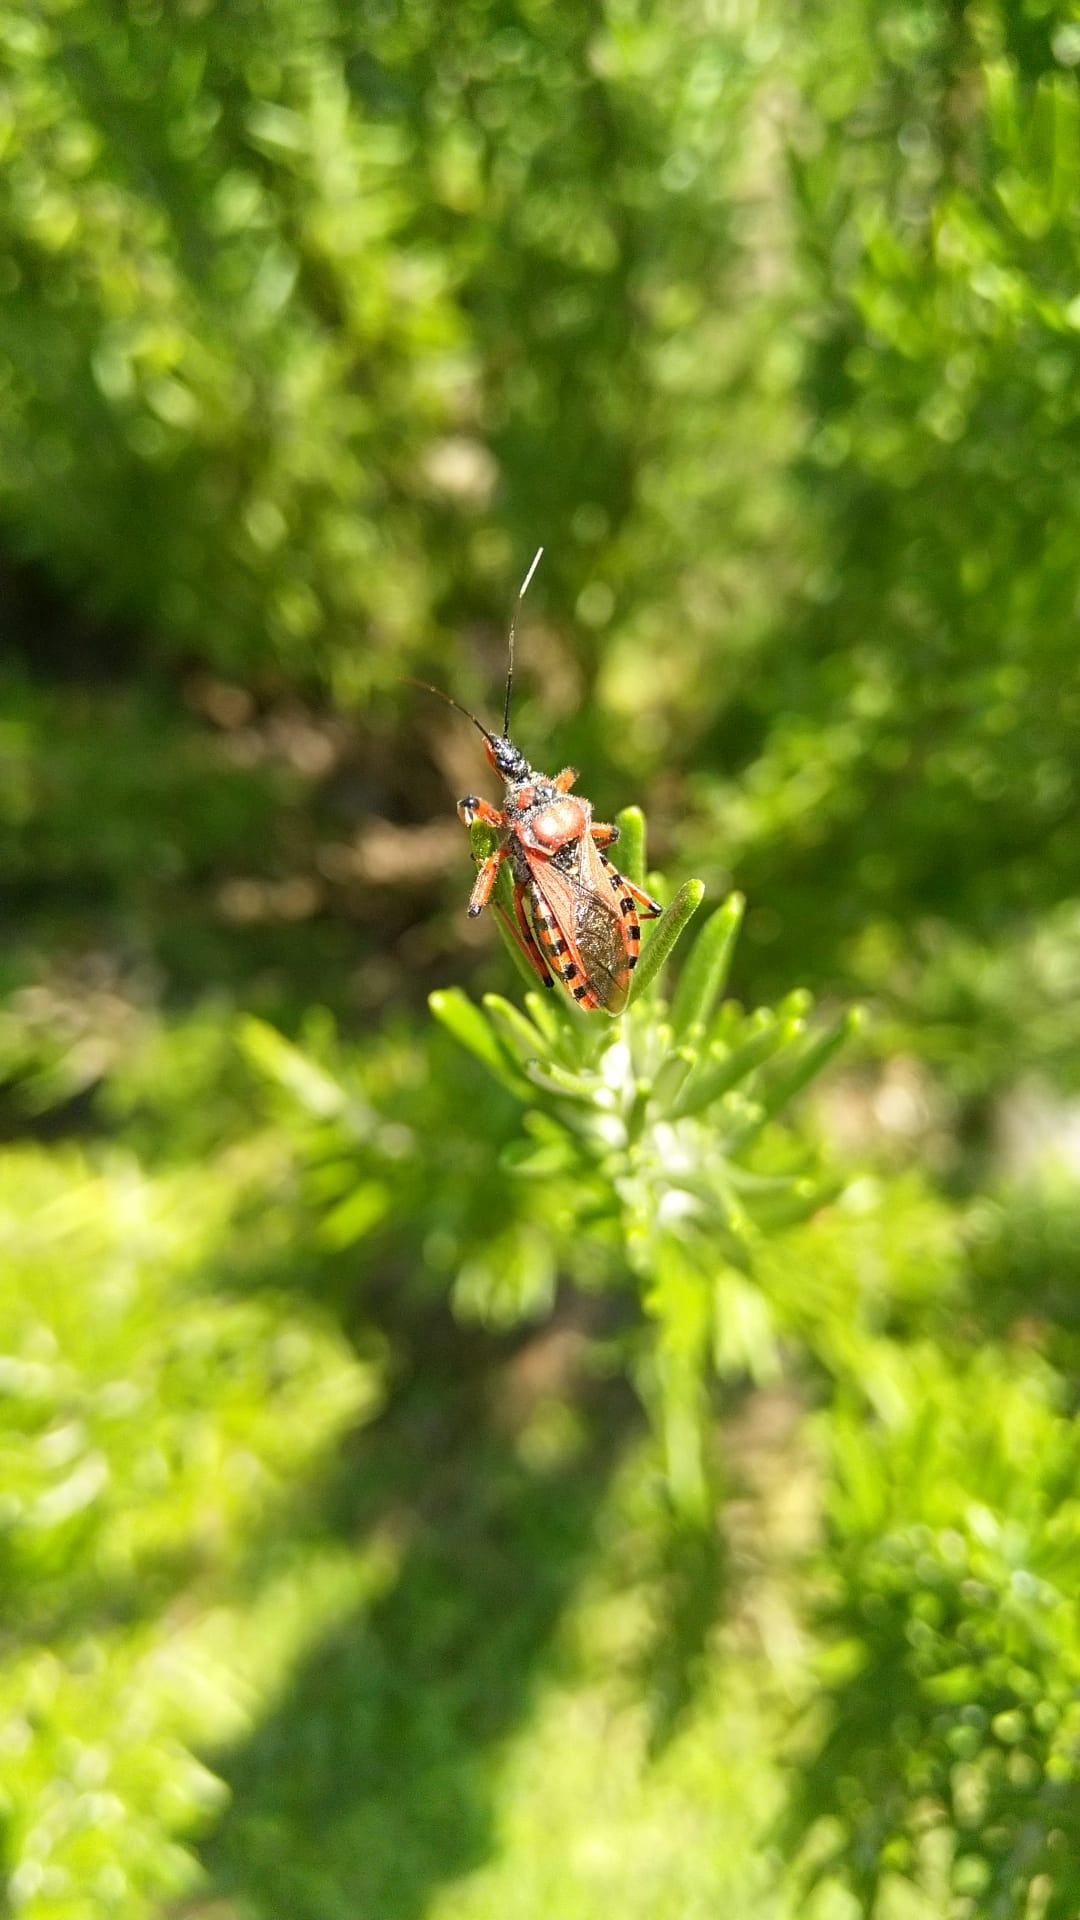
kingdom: Animalia
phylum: Arthropoda
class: Insecta
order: Hemiptera
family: Reduviidae
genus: Rhynocoris
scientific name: Rhynocoris iracundus
